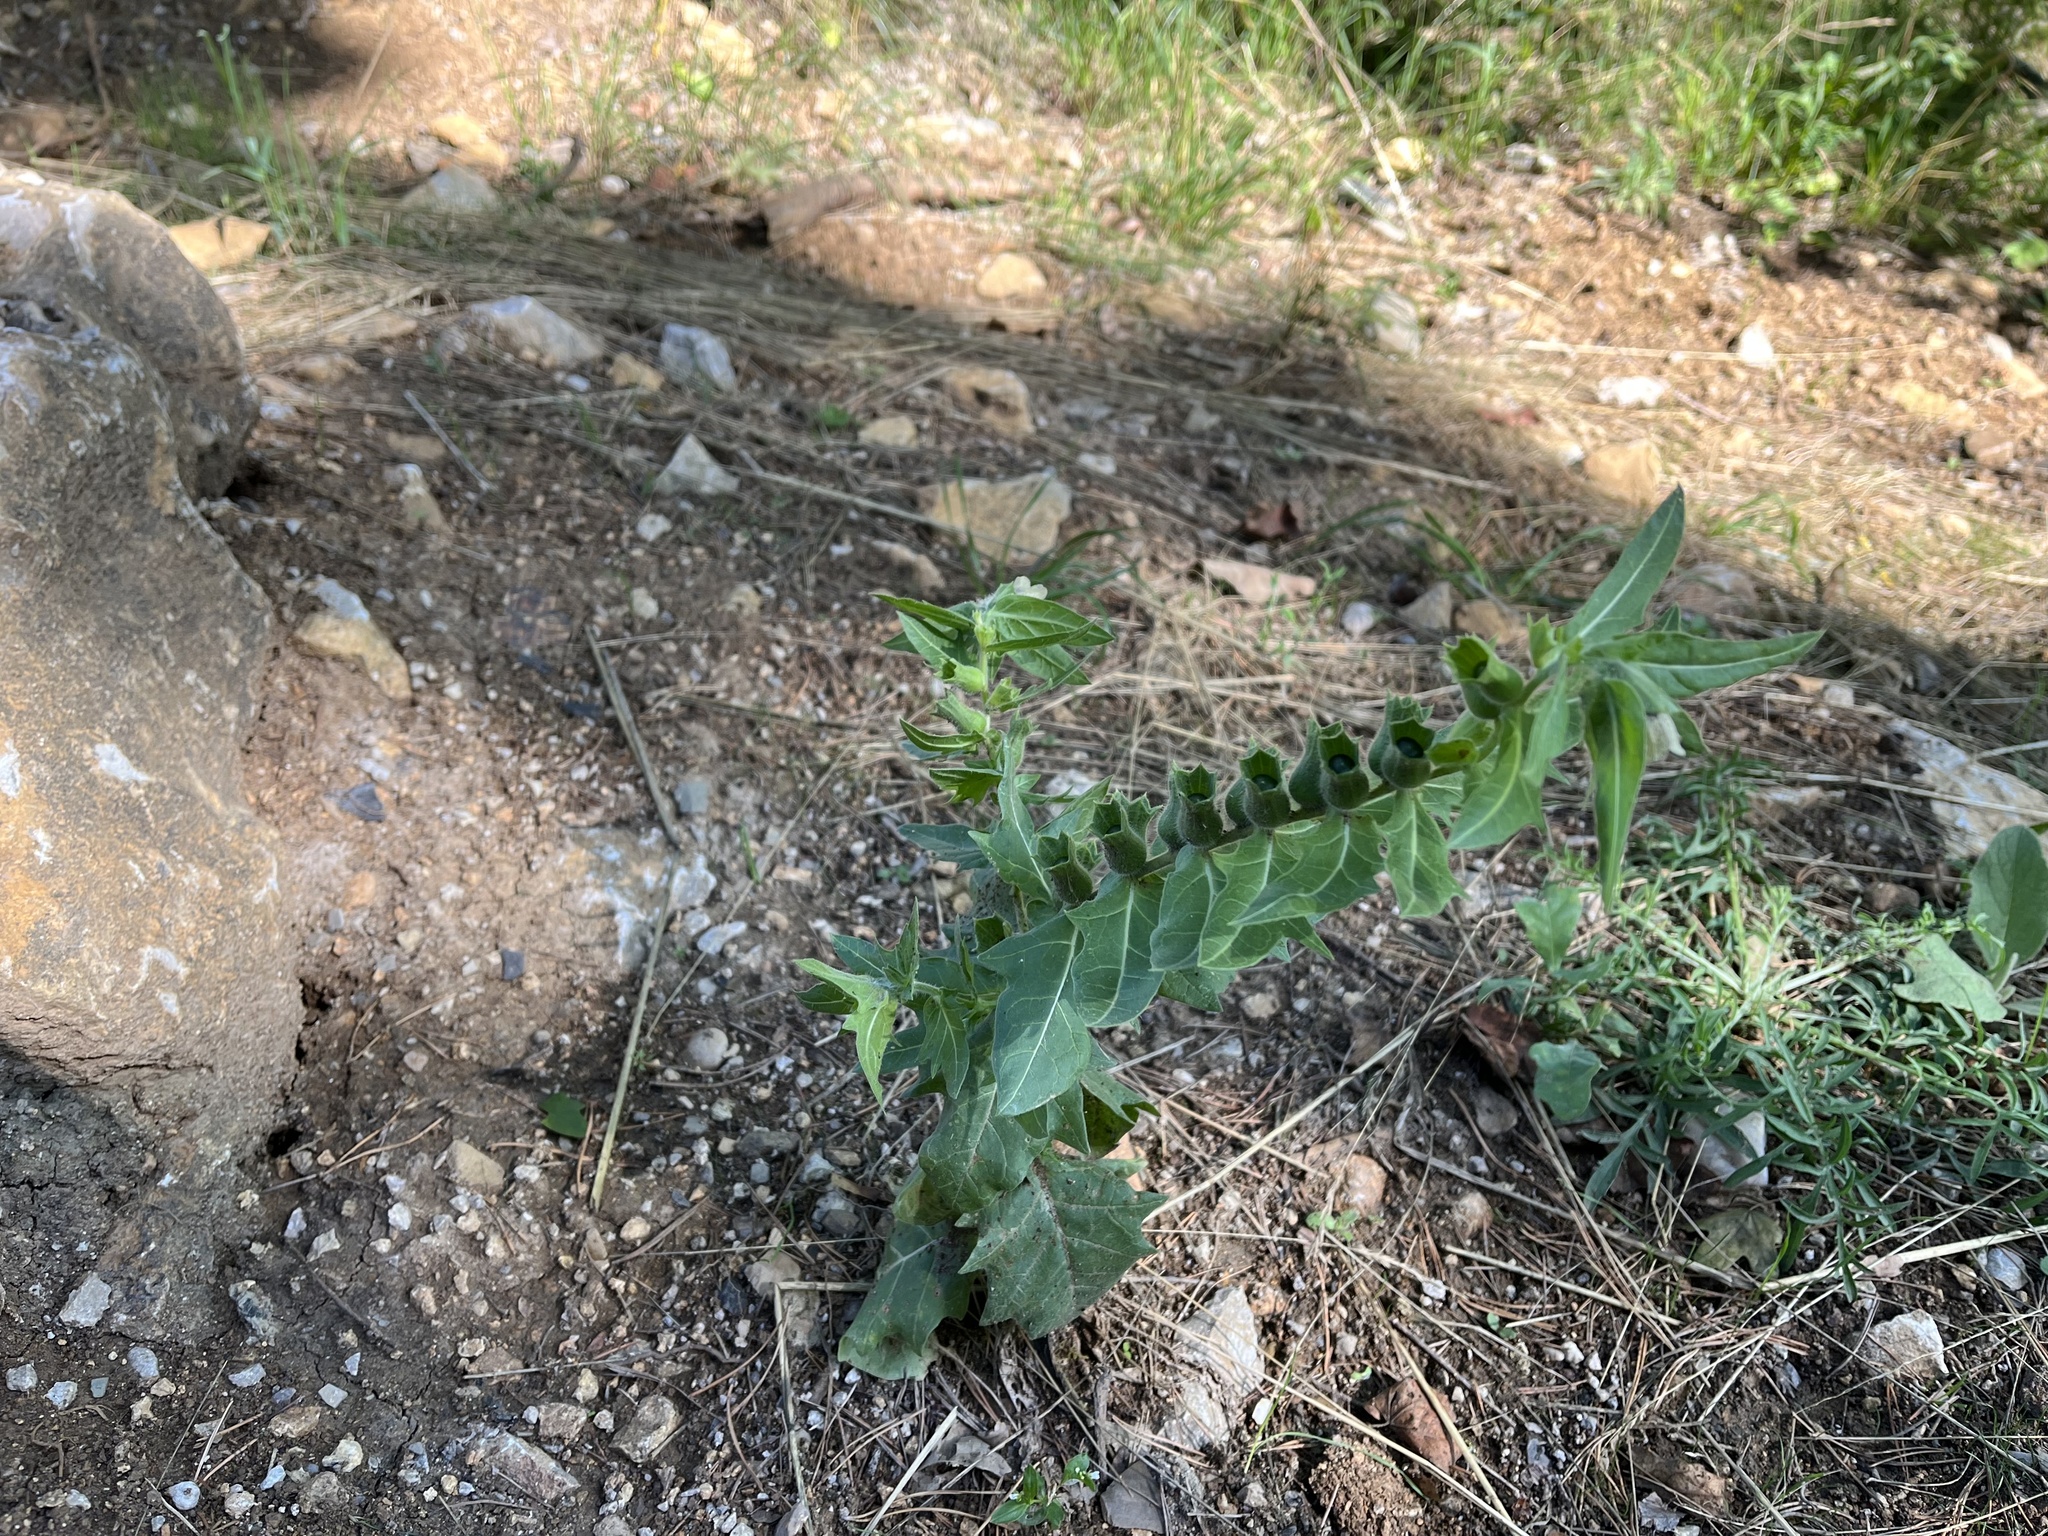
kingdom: Plantae
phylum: Tracheophyta
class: Magnoliopsida
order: Solanales
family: Solanaceae
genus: Hyoscyamus
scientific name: Hyoscyamus niger
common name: Henbane
